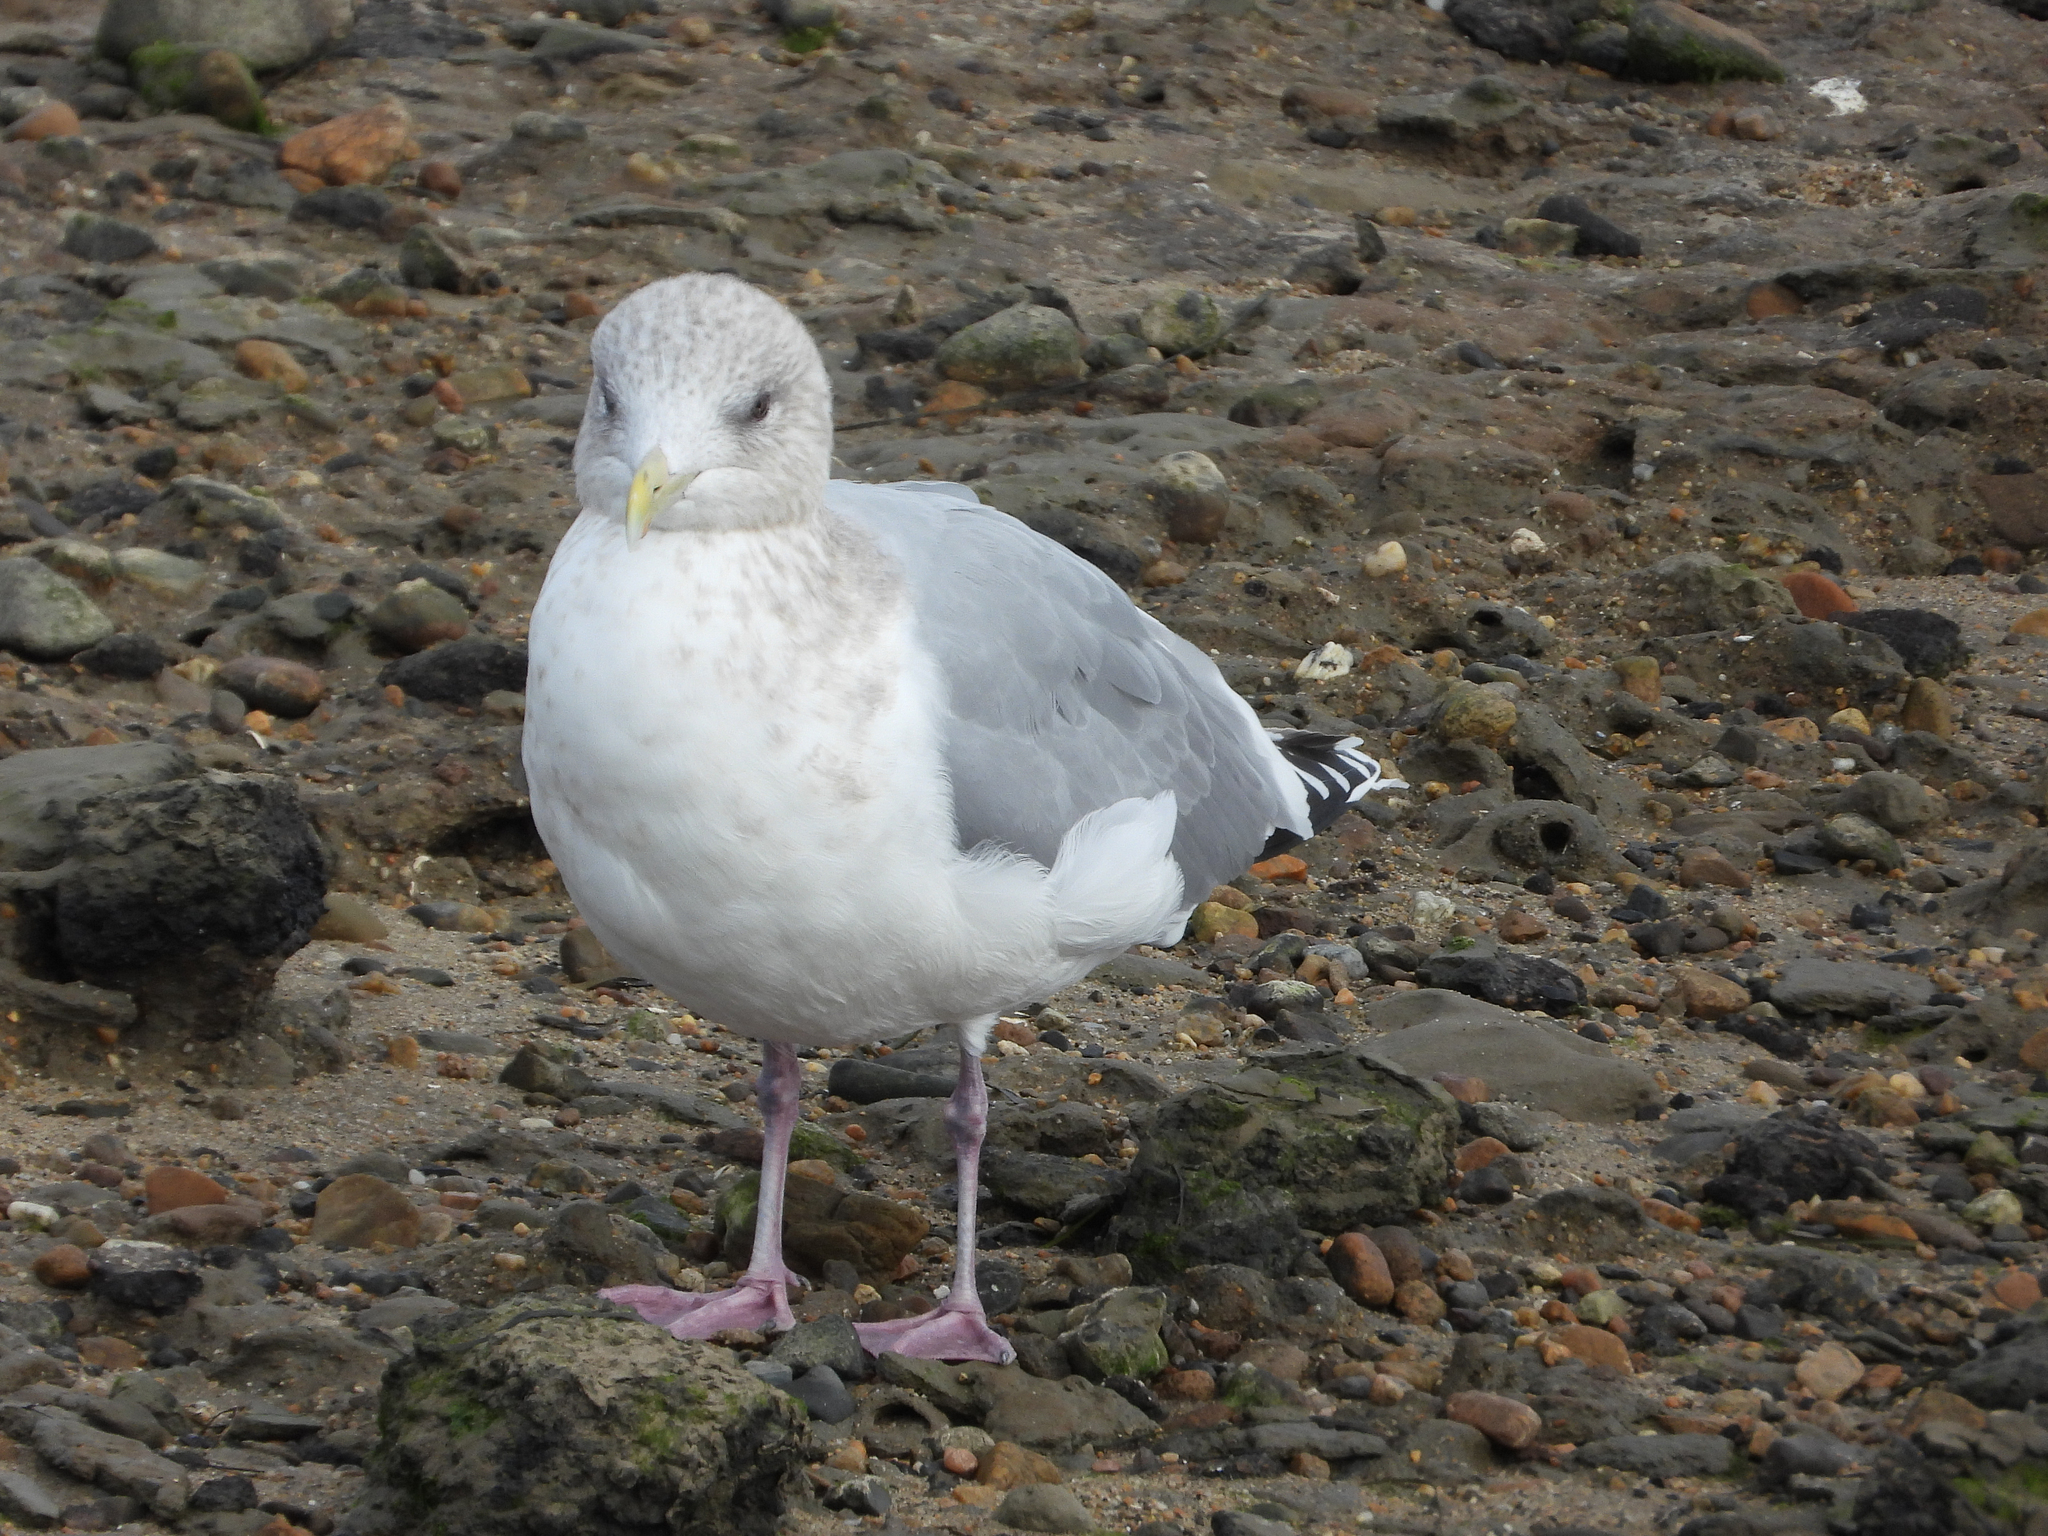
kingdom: Animalia
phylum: Chordata
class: Aves
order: Charadriiformes
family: Laridae
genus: Larus
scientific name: Larus glaucoides
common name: Iceland gull
